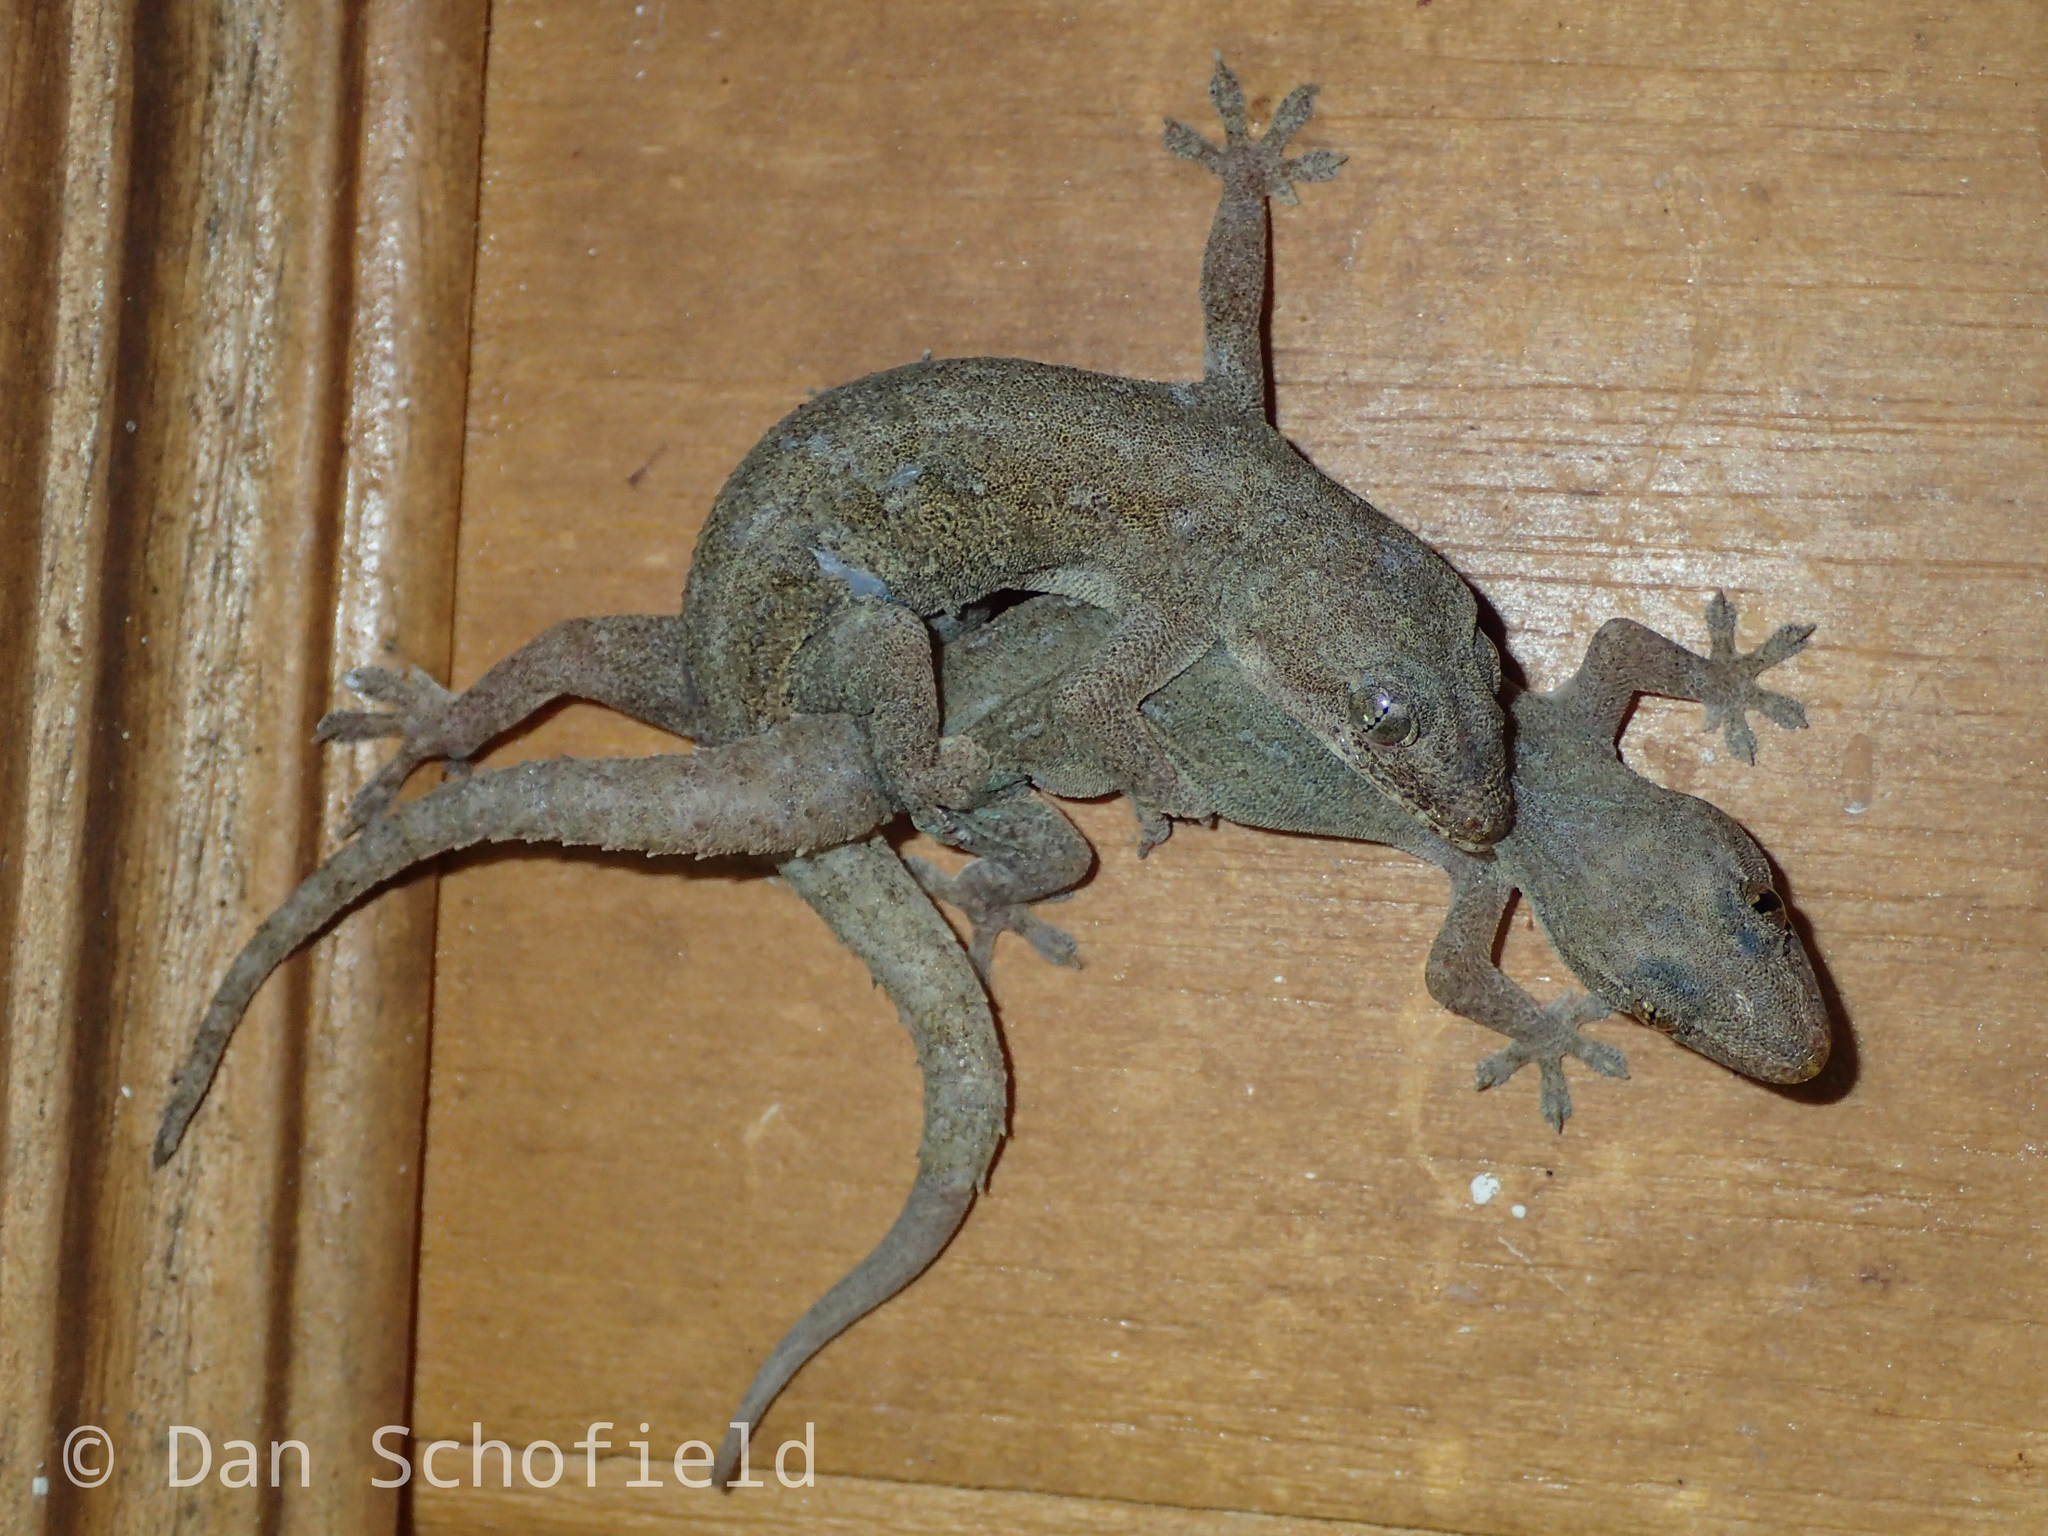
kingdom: Animalia
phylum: Chordata
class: Squamata
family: Gekkonidae
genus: Hemidactylus
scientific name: Hemidactylus frenatus
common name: Common house gecko
